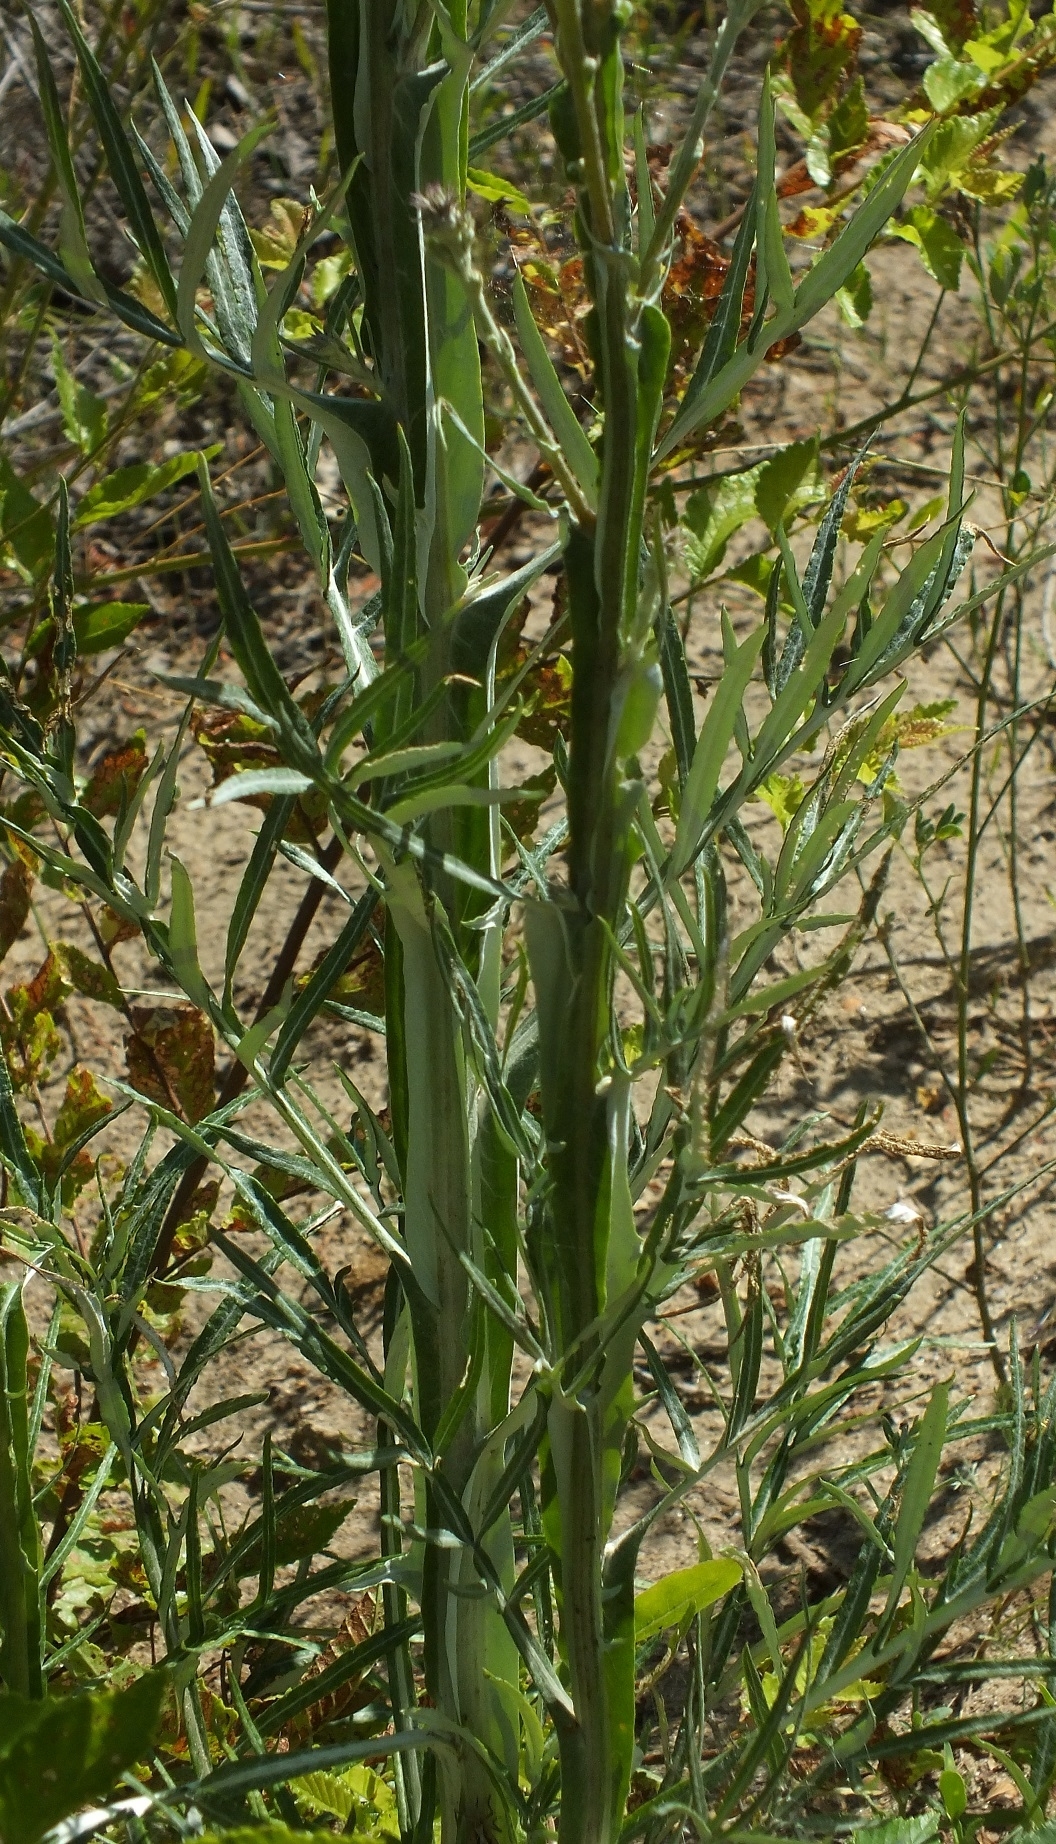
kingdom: Plantae
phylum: Tracheophyta
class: Magnoliopsida
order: Asterales
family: Asteraceae
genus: Jurinea
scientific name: Jurinea polyclonos
